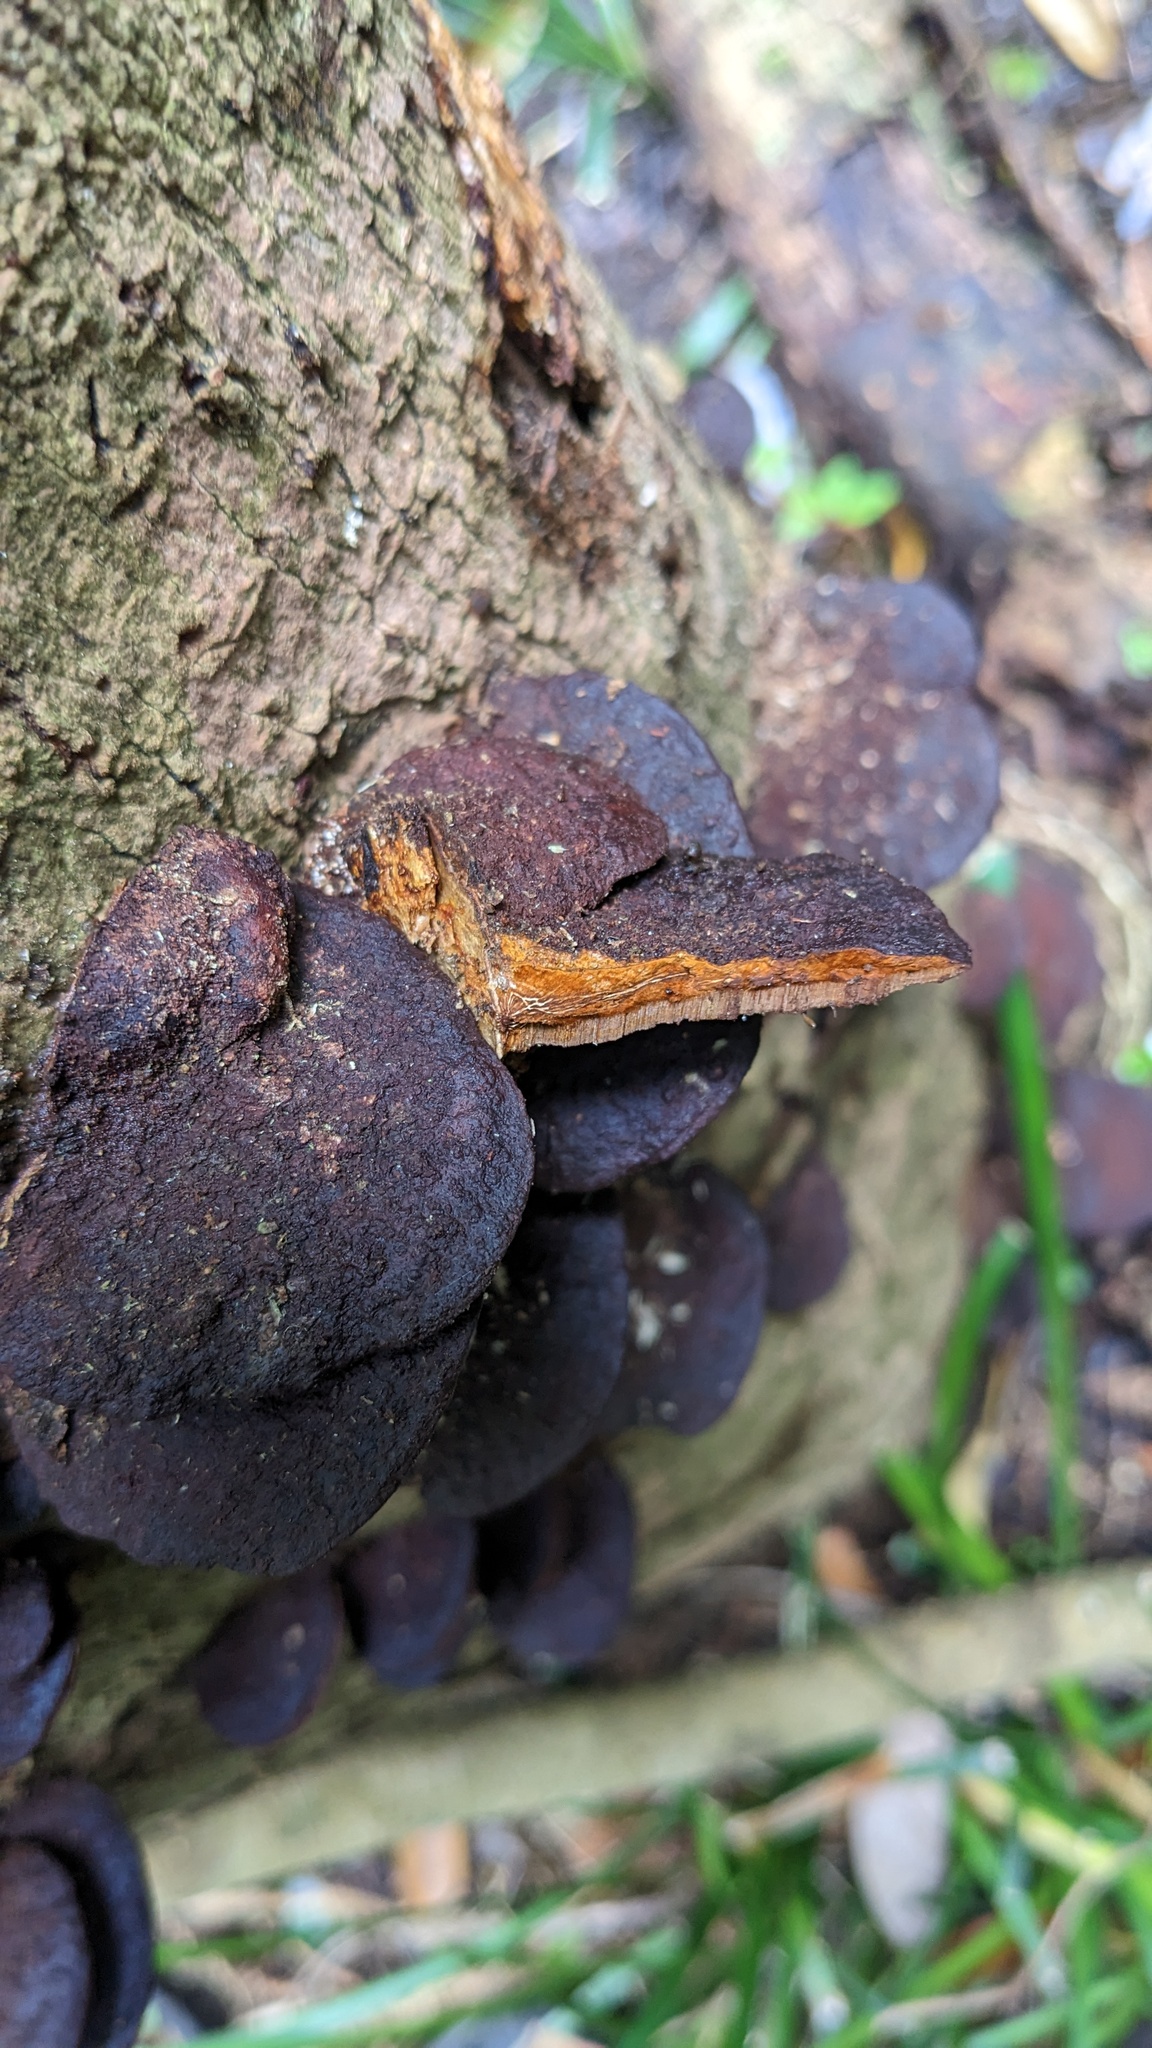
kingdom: Fungi
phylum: Basidiomycota
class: Agaricomycetes
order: Hymenochaetales
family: Hymenochaetaceae
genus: Phellinus
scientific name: Phellinus gilvus
